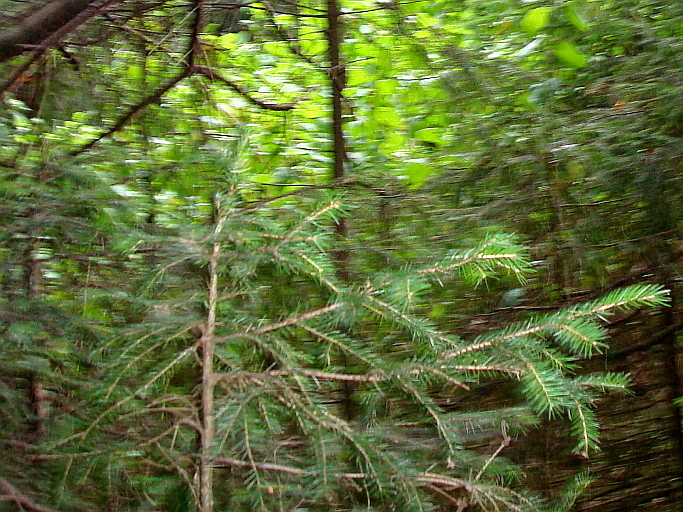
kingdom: Plantae
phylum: Tracheophyta
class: Pinopsida
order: Pinales
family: Pinaceae
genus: Picea
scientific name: Picea abies
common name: Norway spruce
